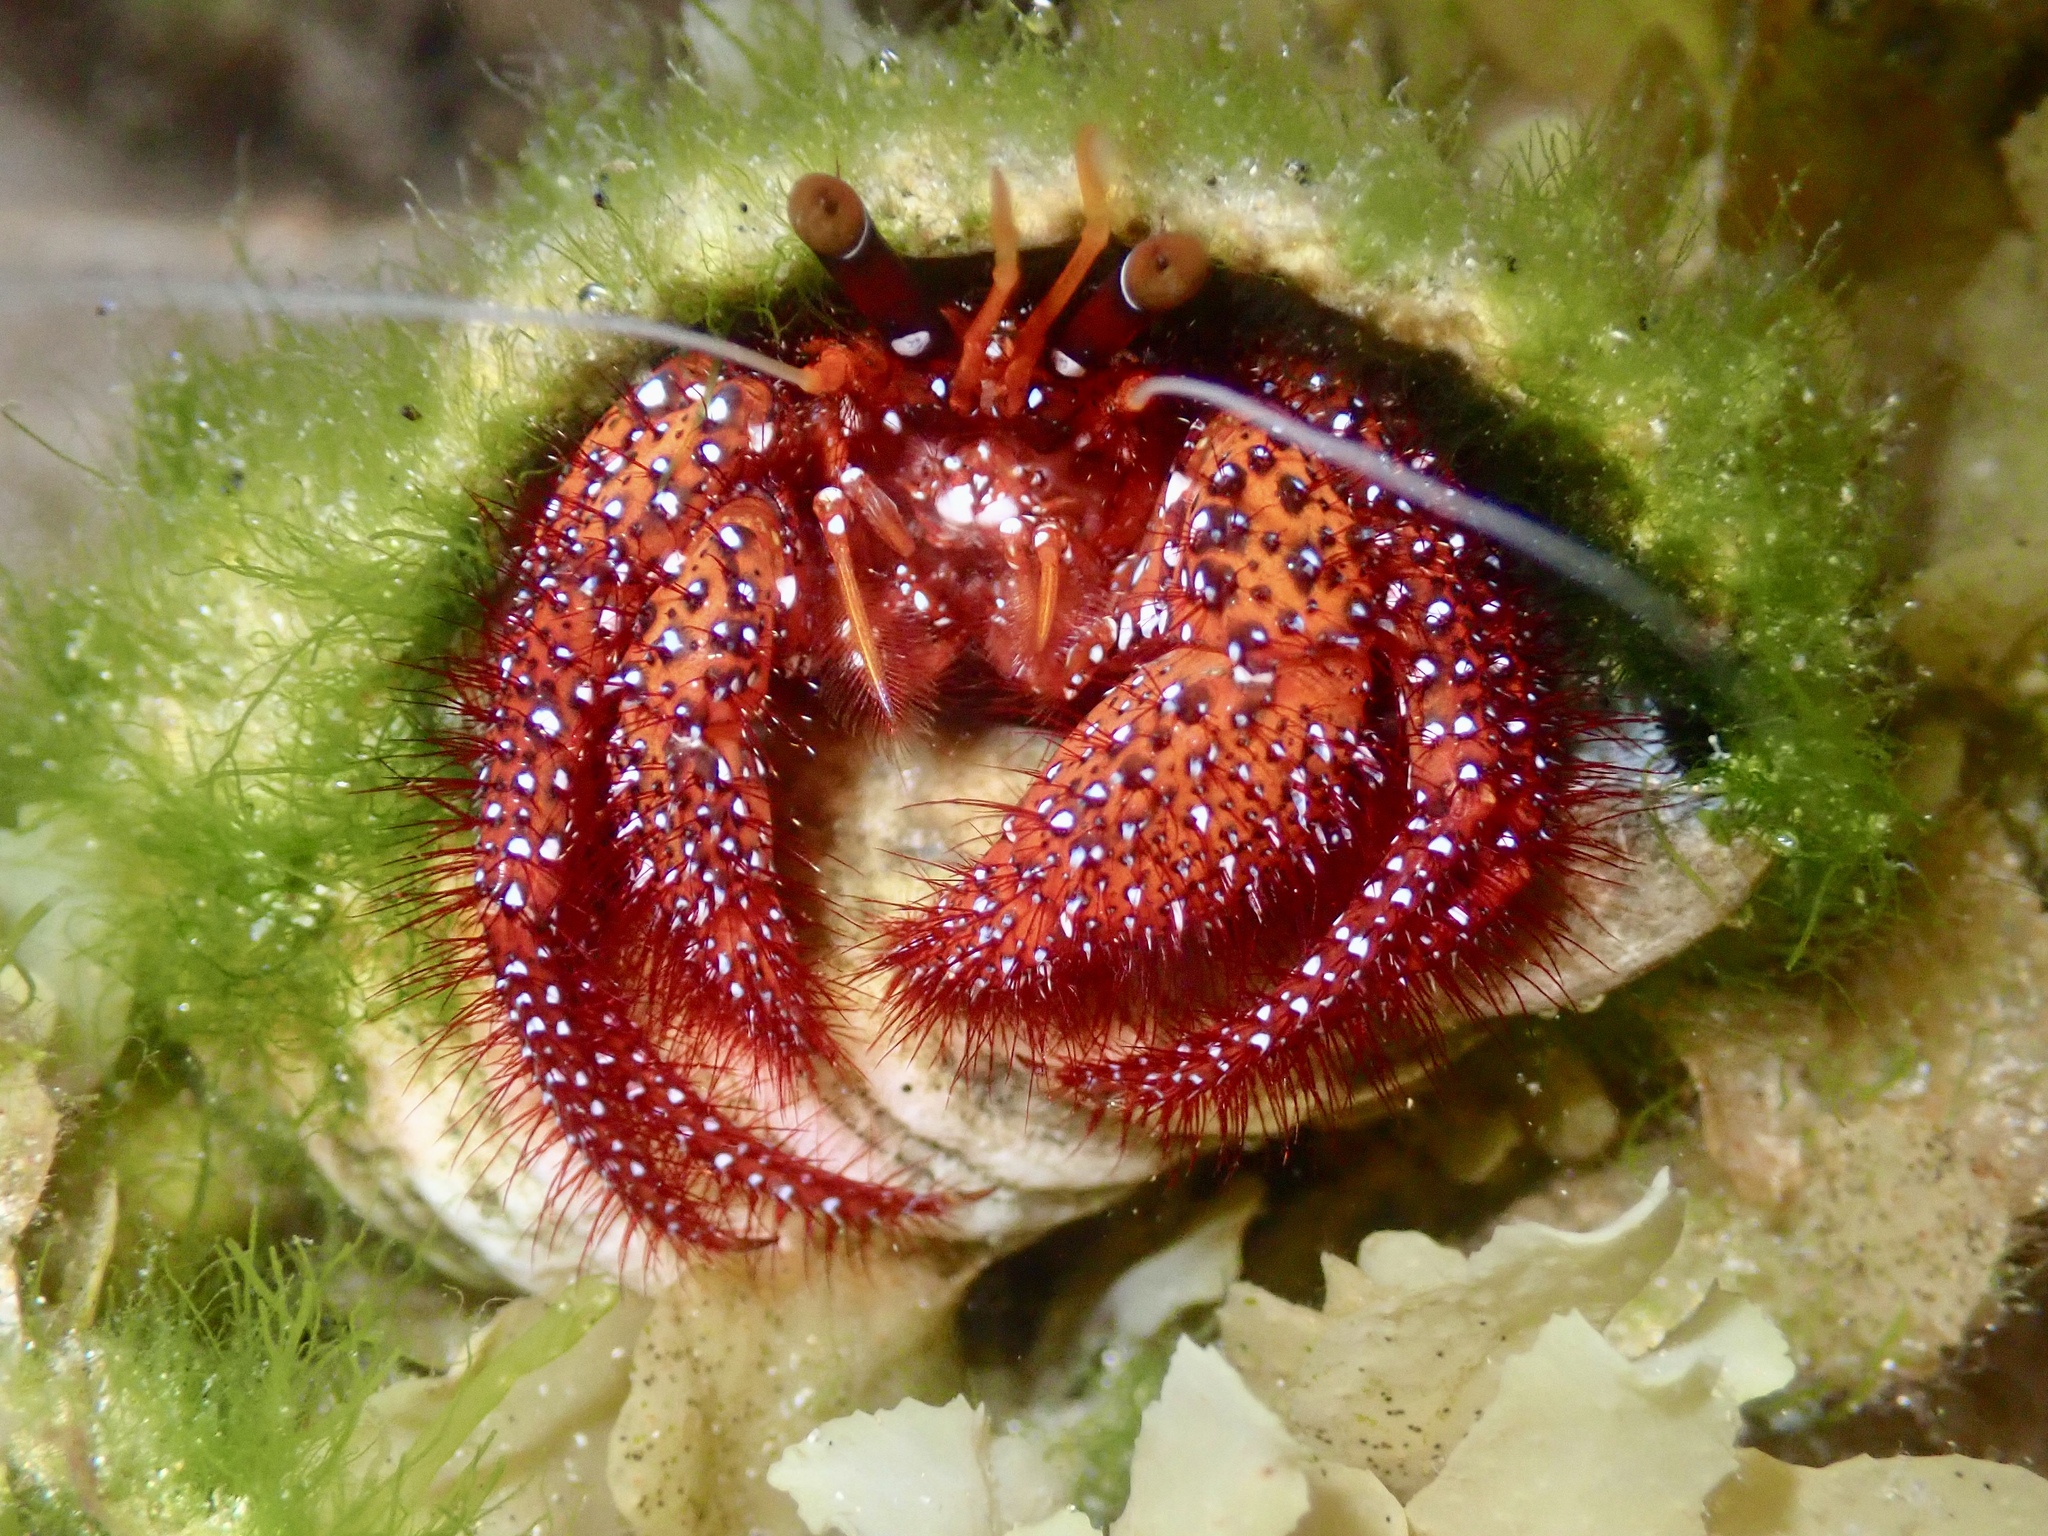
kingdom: Animalia
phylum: Arthropoda
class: Malacostraca
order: Decapoda
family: Diogenidae
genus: Dardanus
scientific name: Dardanus megistos
